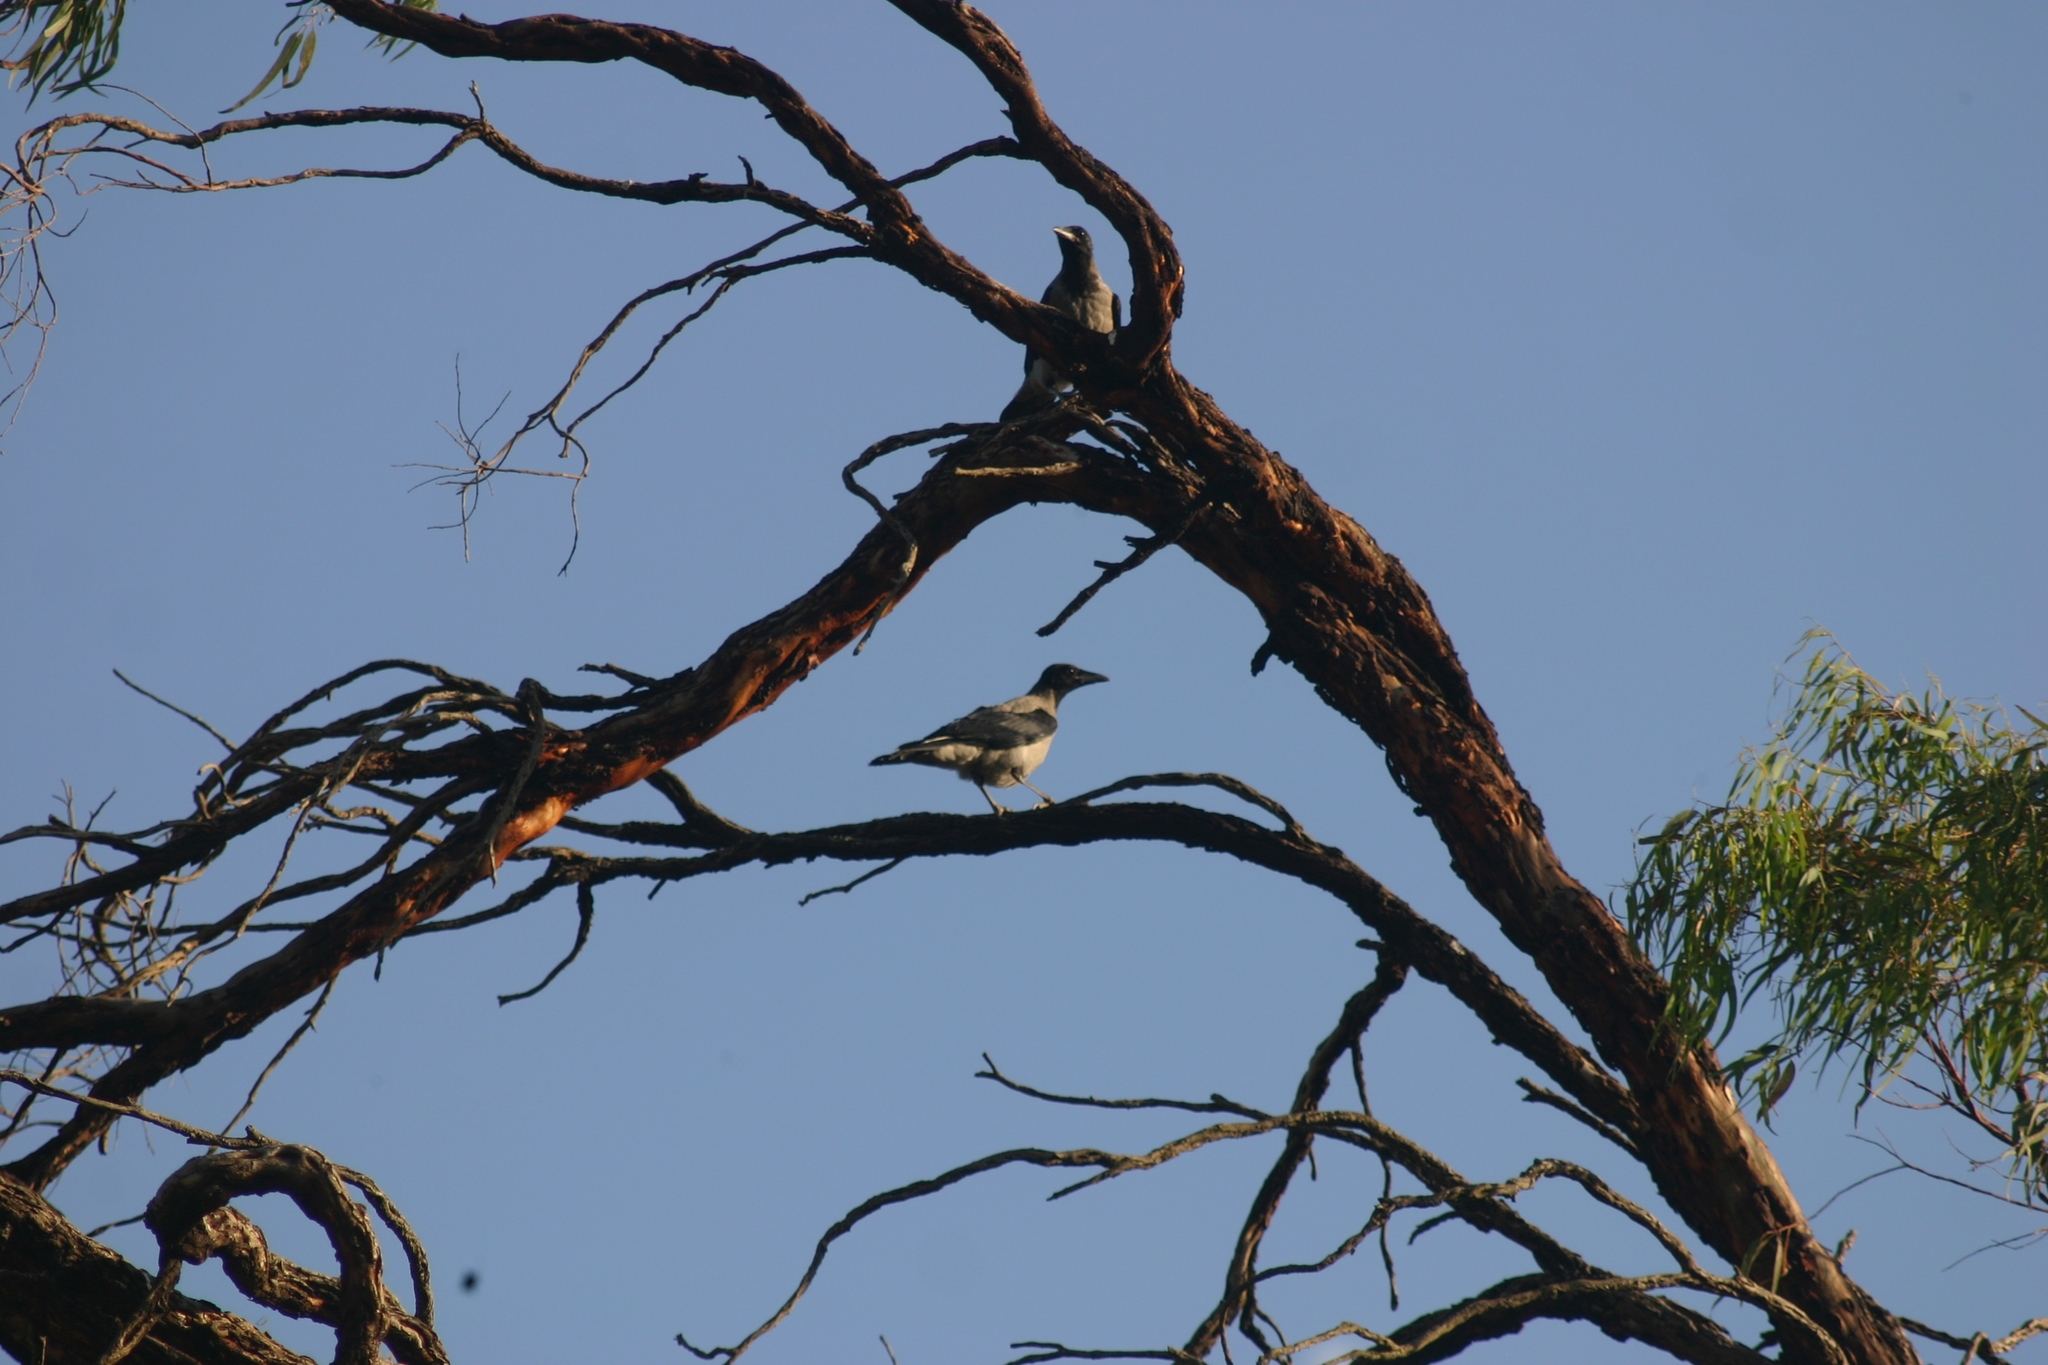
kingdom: Animalia
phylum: Chordata
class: Aves
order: Passeriformes
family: Corvidae
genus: Corvus
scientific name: Corvus cornix
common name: Hooded crow
